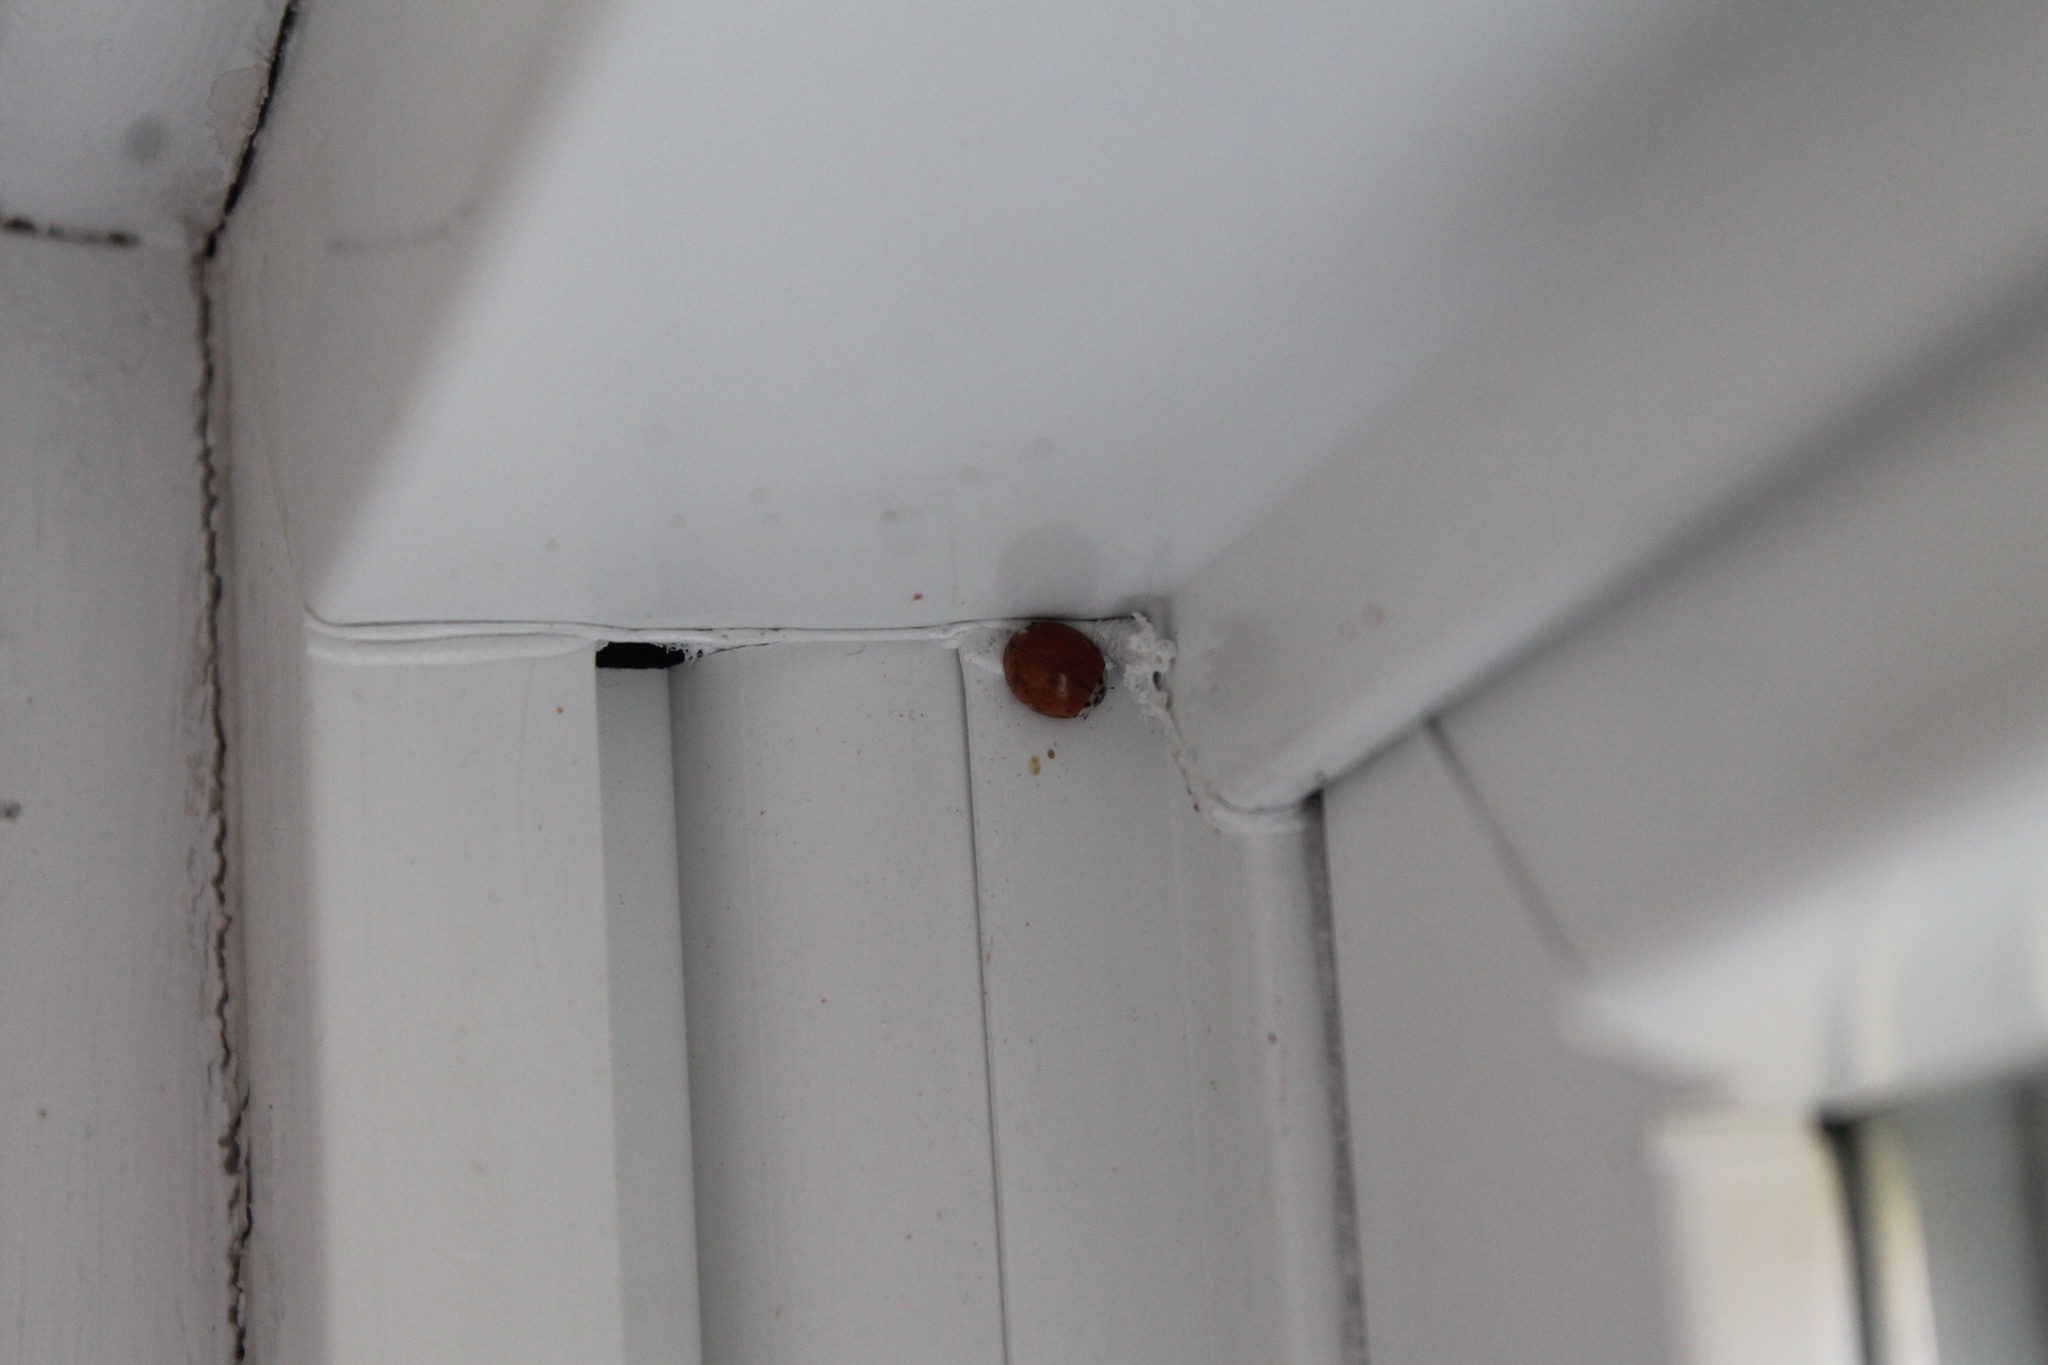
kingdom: Animalia
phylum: Arthropoda
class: Insecta
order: Coleoptera
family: Coccinellidae
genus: Harmonia
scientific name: Harmonia axyridis
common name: Harlequin ladybird
